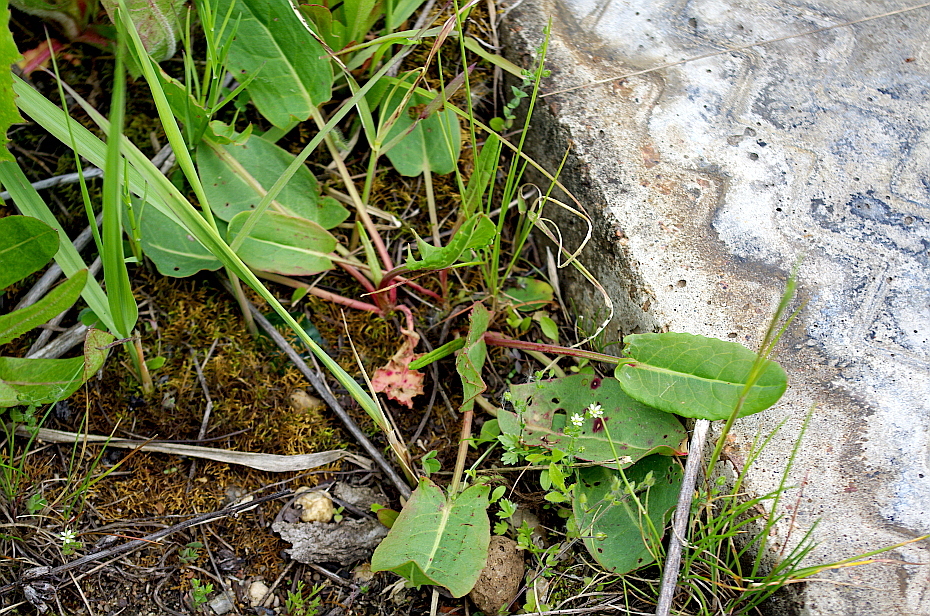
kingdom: Plantae
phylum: Tracheophyta
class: Magnoliopsida
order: Caryophyllales
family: Polygonaceae
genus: Rumex
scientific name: Rumex acetosa
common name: Garden sorrel
